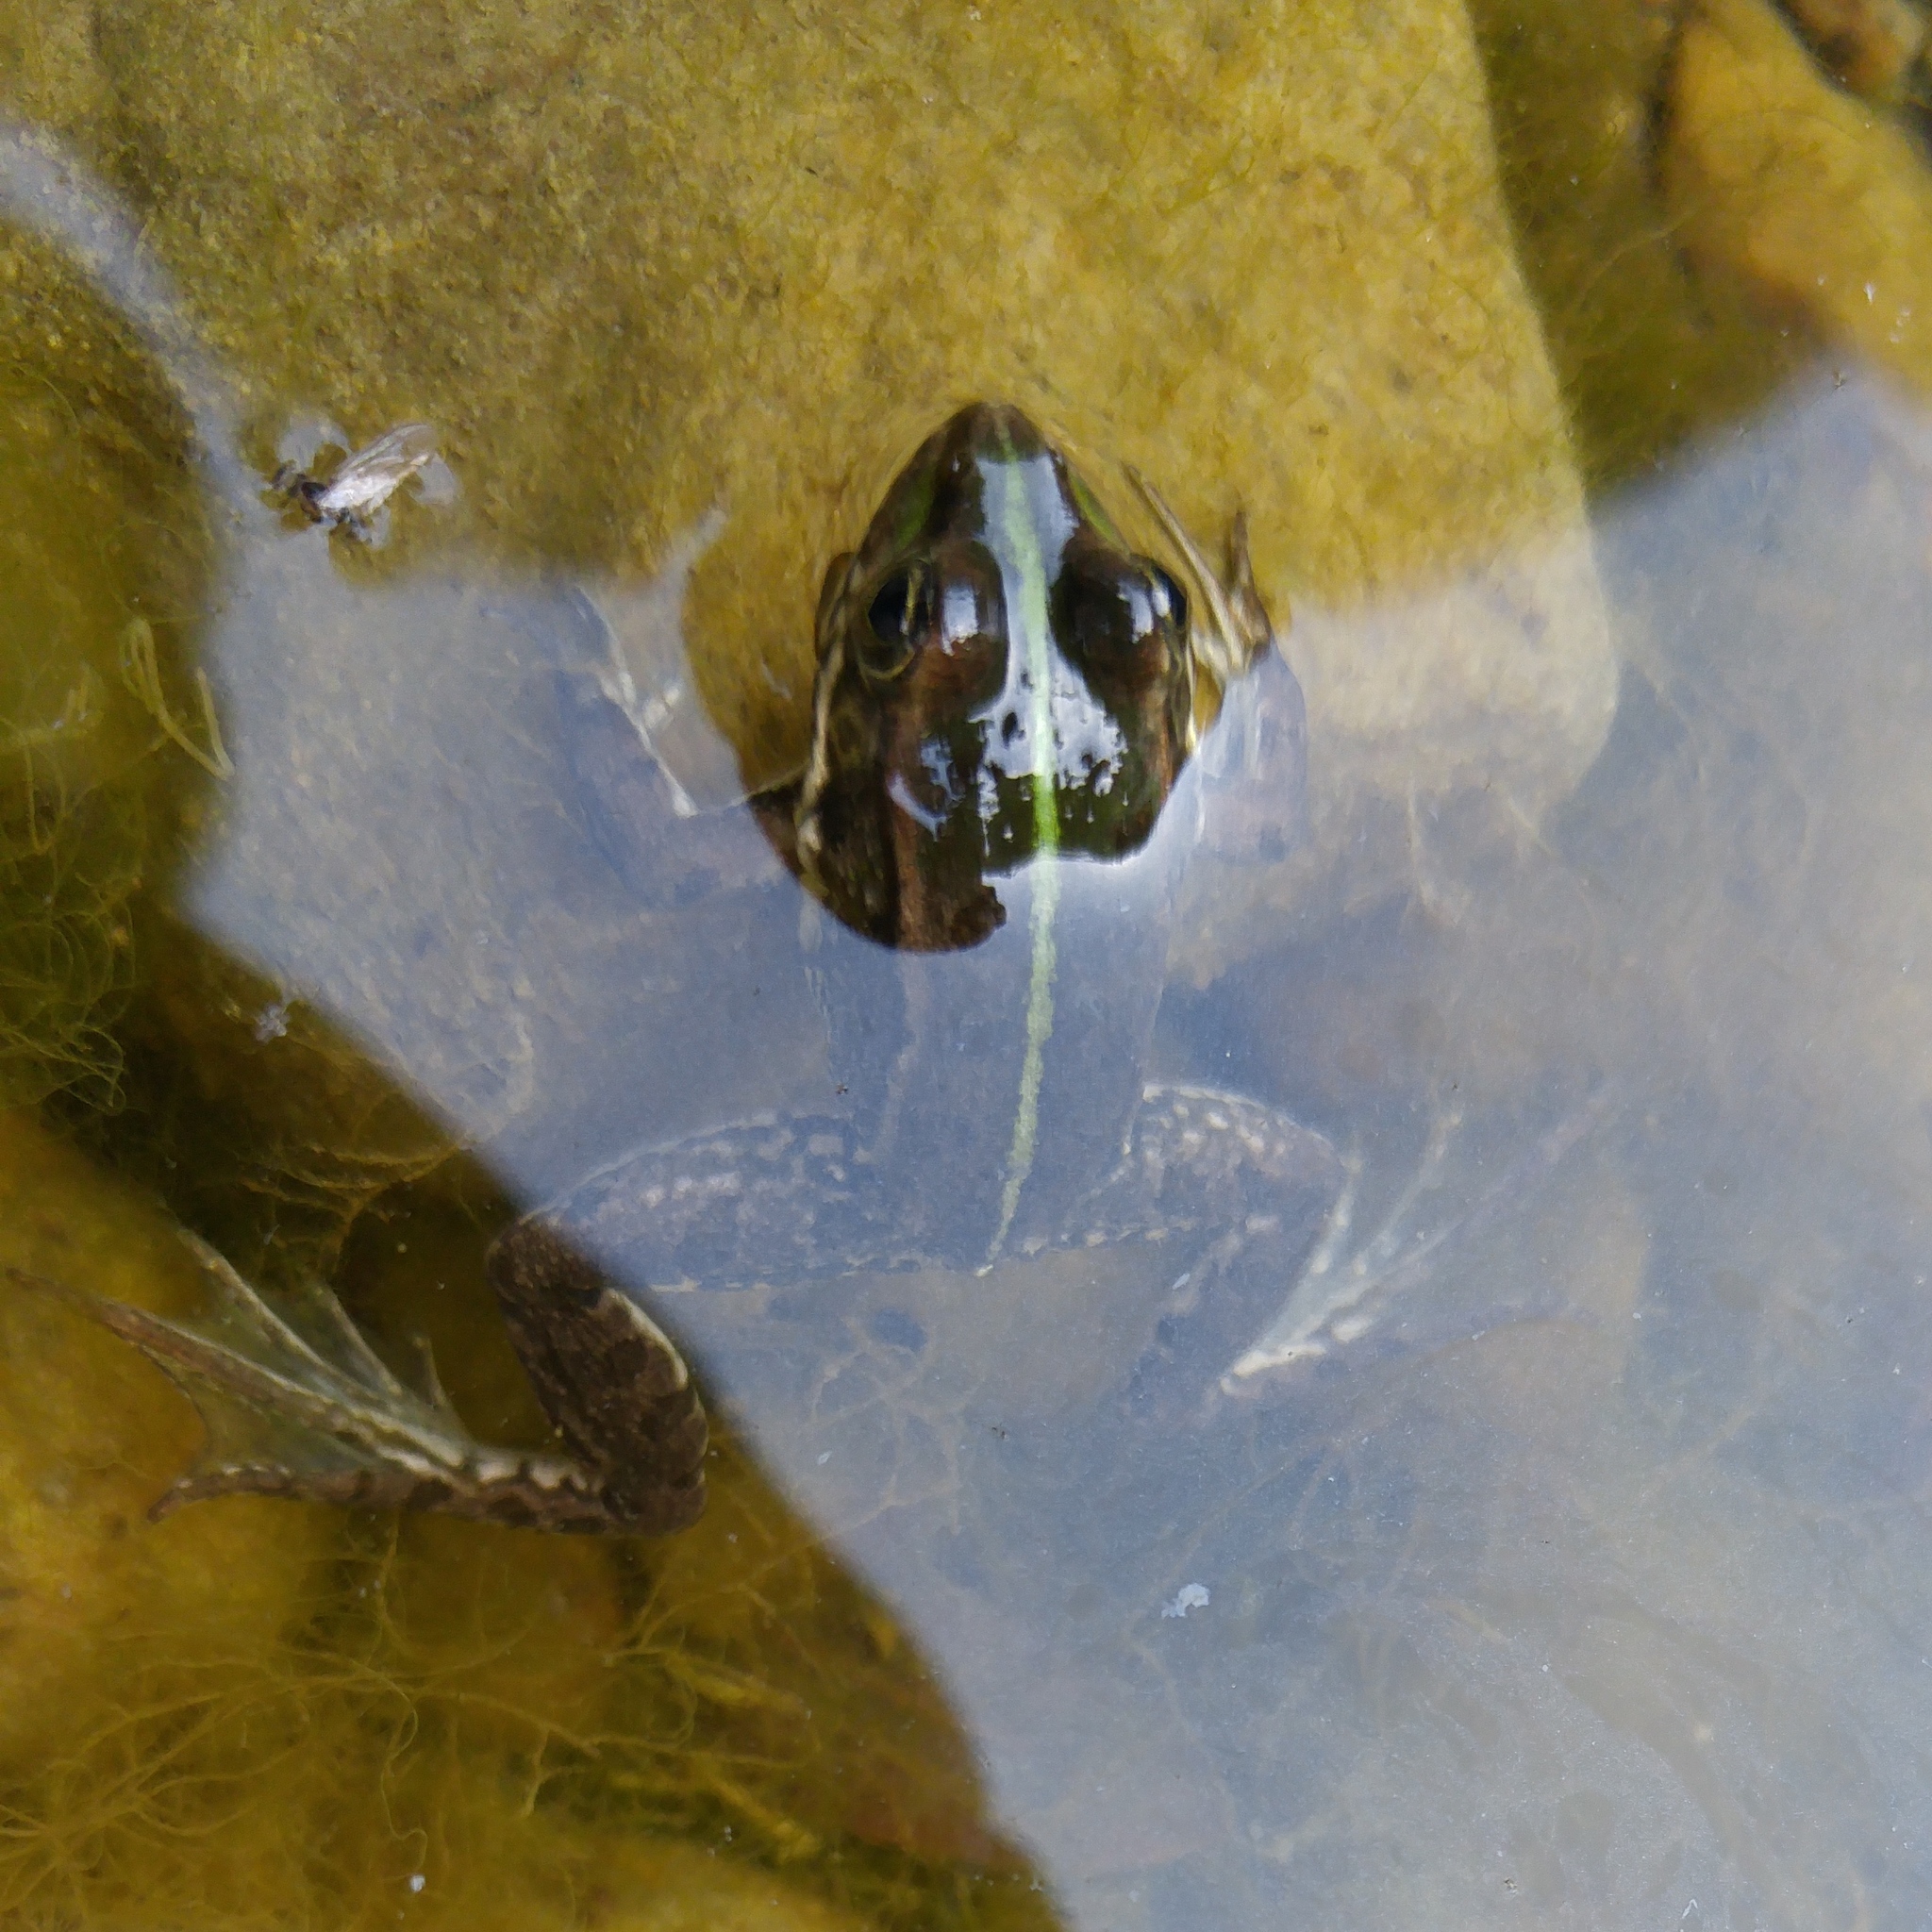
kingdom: Animalia
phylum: Chordata
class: Amphibia
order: Anura
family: Ranidae
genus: Pelophylax
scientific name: Pelophylax saharicus
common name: Sahara frog
